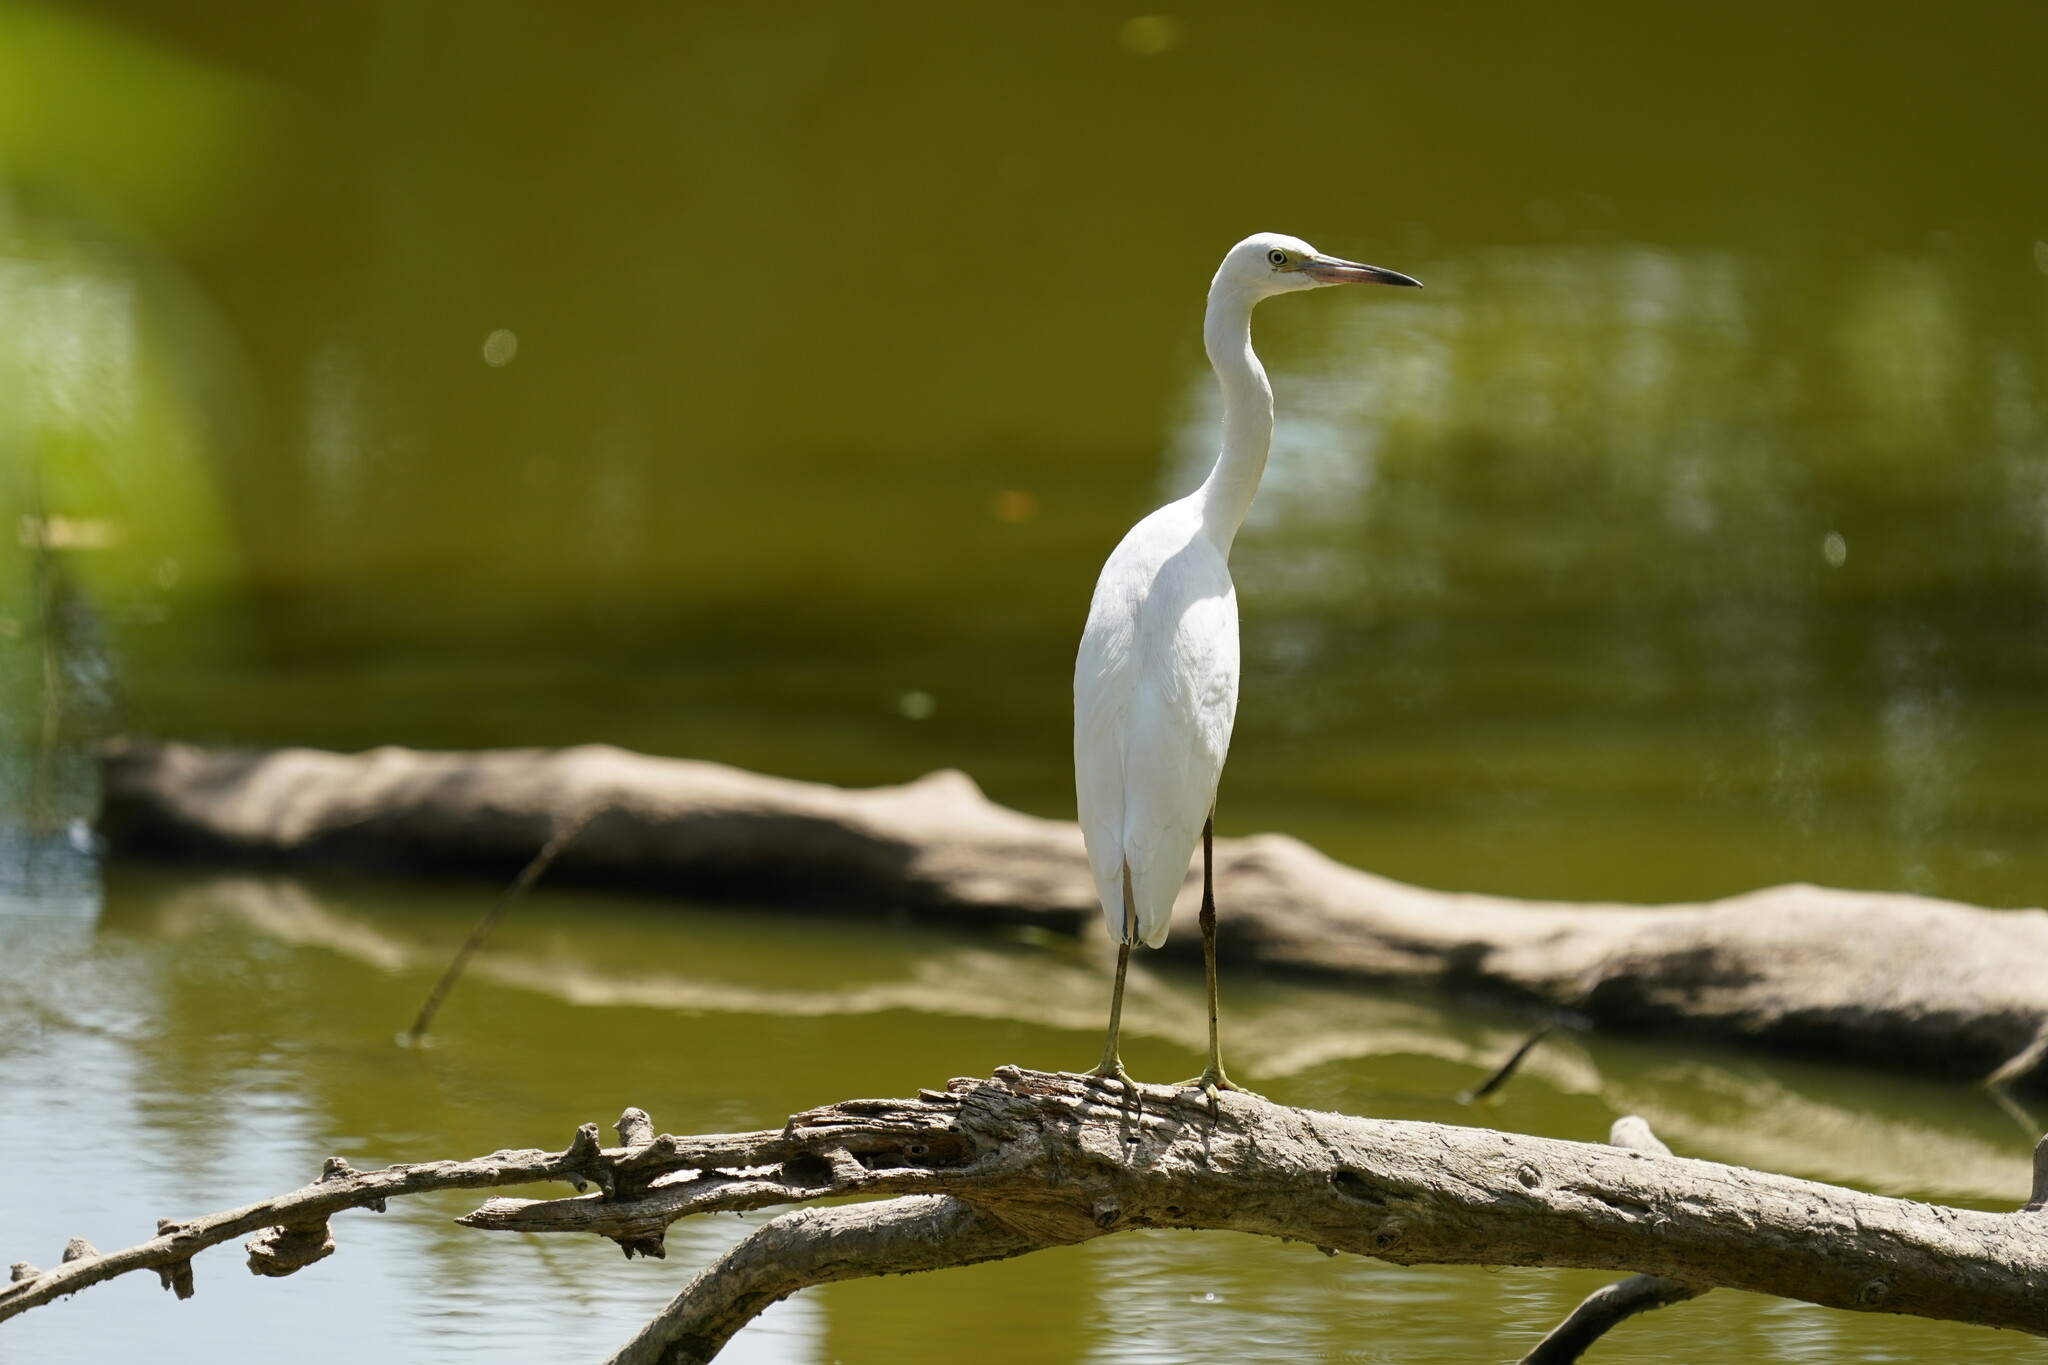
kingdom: Animalia
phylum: Chordata
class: Aves
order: Pelecaniformes
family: Ardeidae
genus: Egretta
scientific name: Egretta caerulea
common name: Little blue heron
